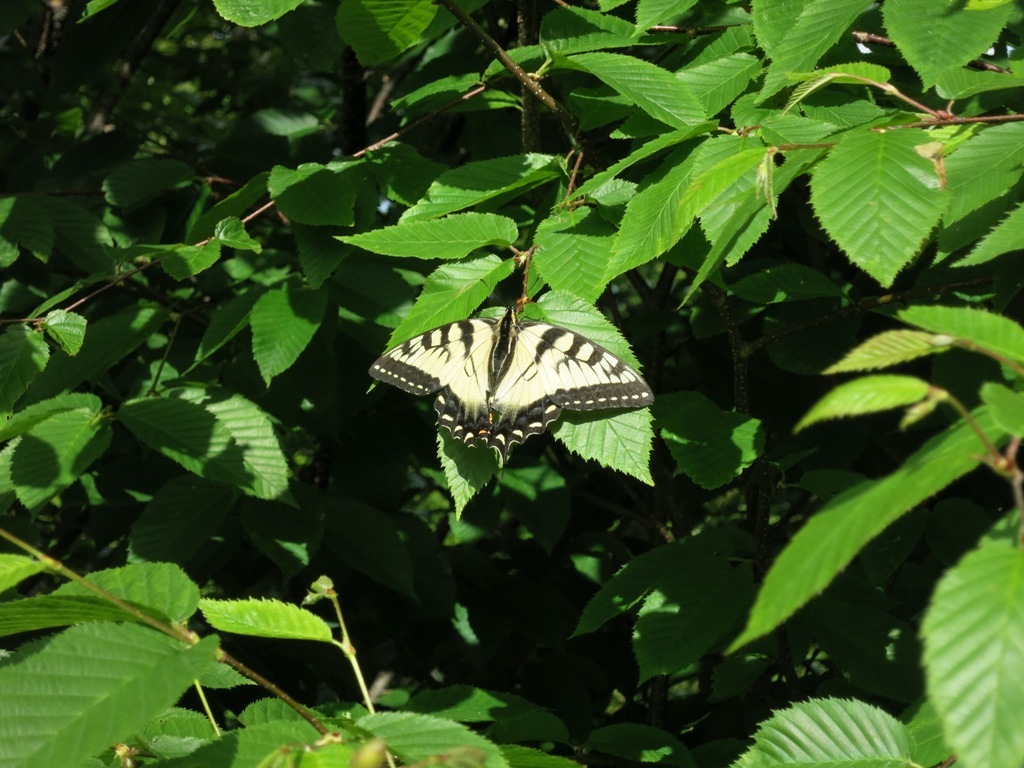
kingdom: Animalia
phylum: Arthropoda
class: Insecta
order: Lepidoptera
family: Papilionidae
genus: Papilio
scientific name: Papilio glaucus
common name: Tiger swallowtail
